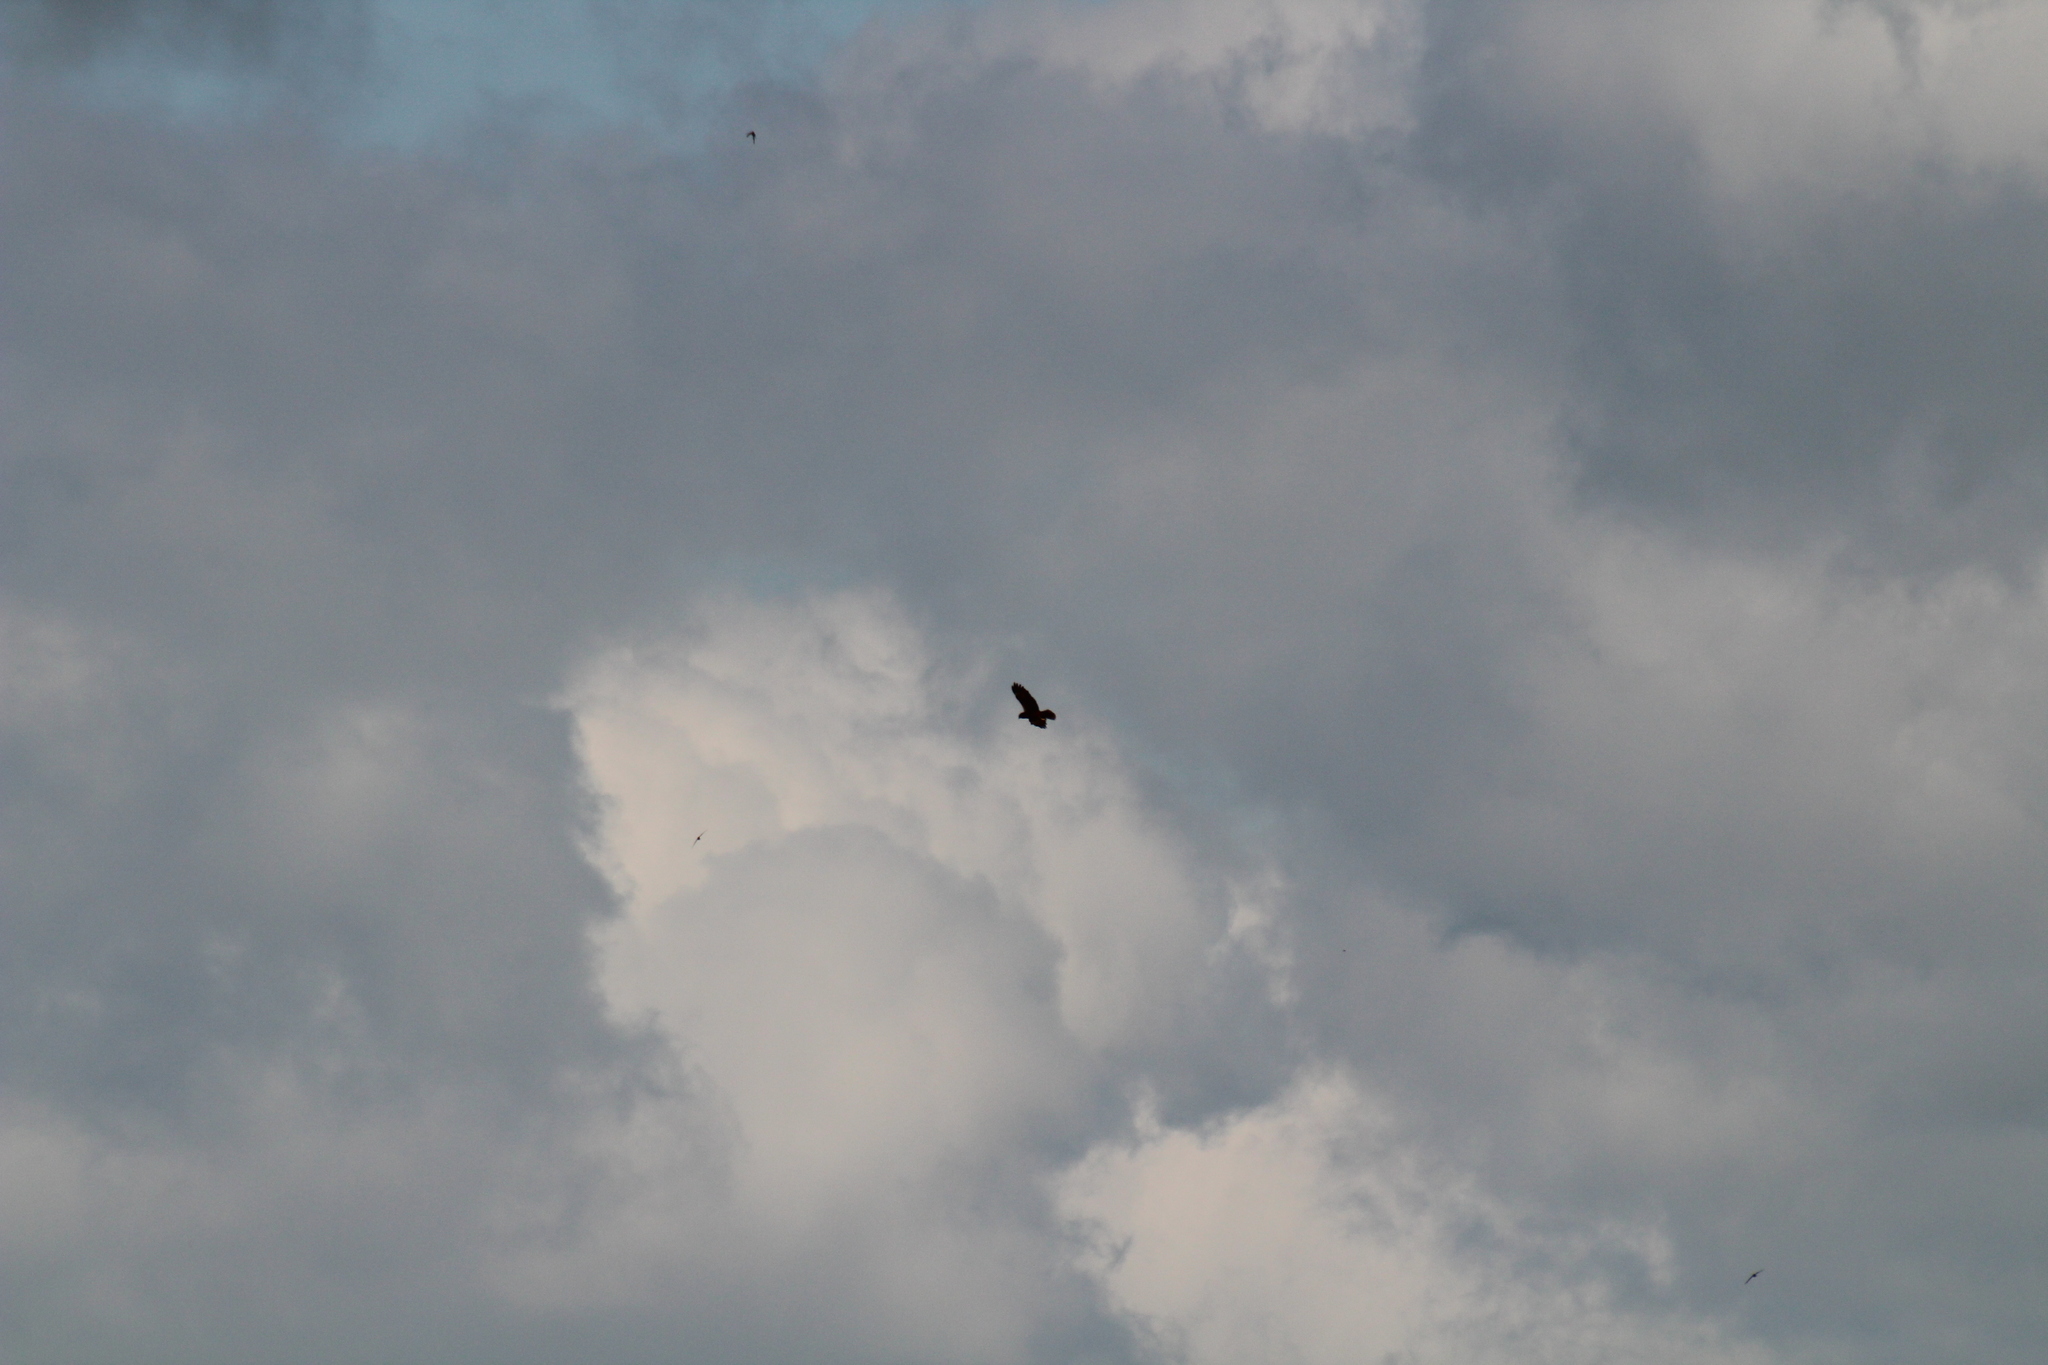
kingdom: Animalia
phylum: Chordata
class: Aves
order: Accipitriformes
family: Accipitridae
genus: Circus
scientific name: Circus aeruginosus
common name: Western marsh harrier
